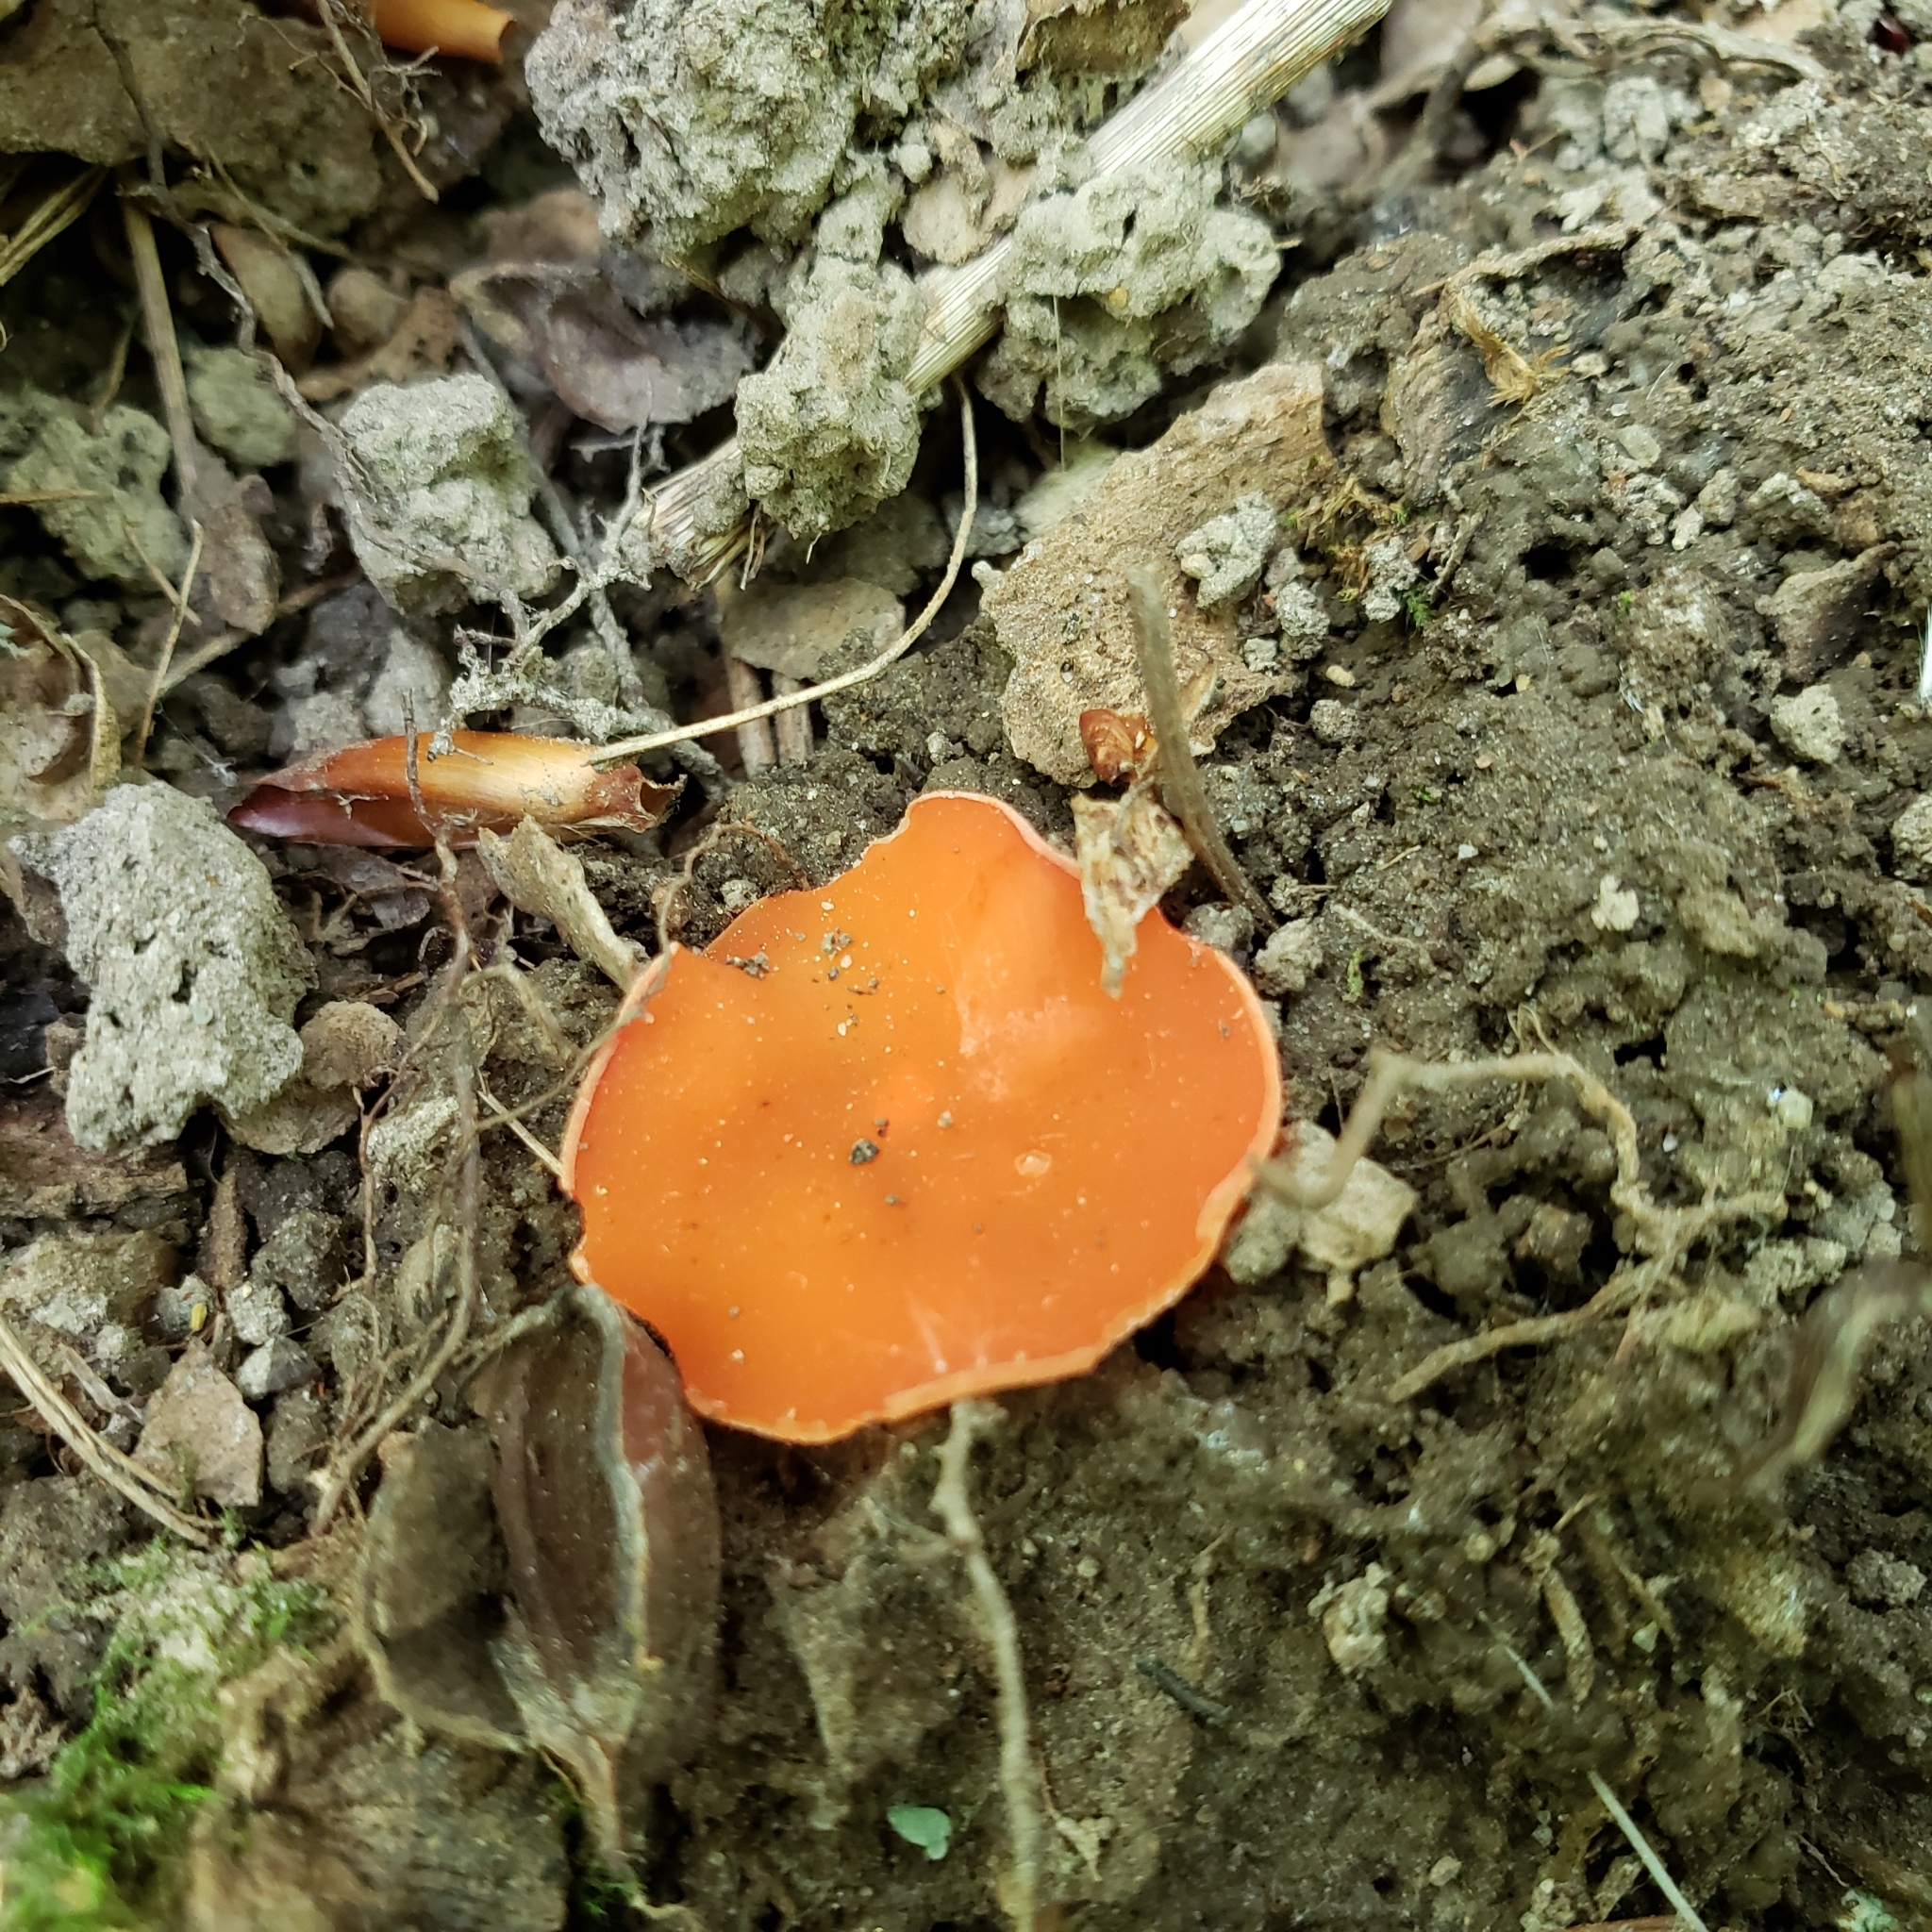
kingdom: Fungi
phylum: Ascomycota
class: Pezizomycetes
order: Pezizales
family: Pyronemataceae
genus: Aleuria
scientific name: Aleuria aurantia
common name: Orange peel fungus
